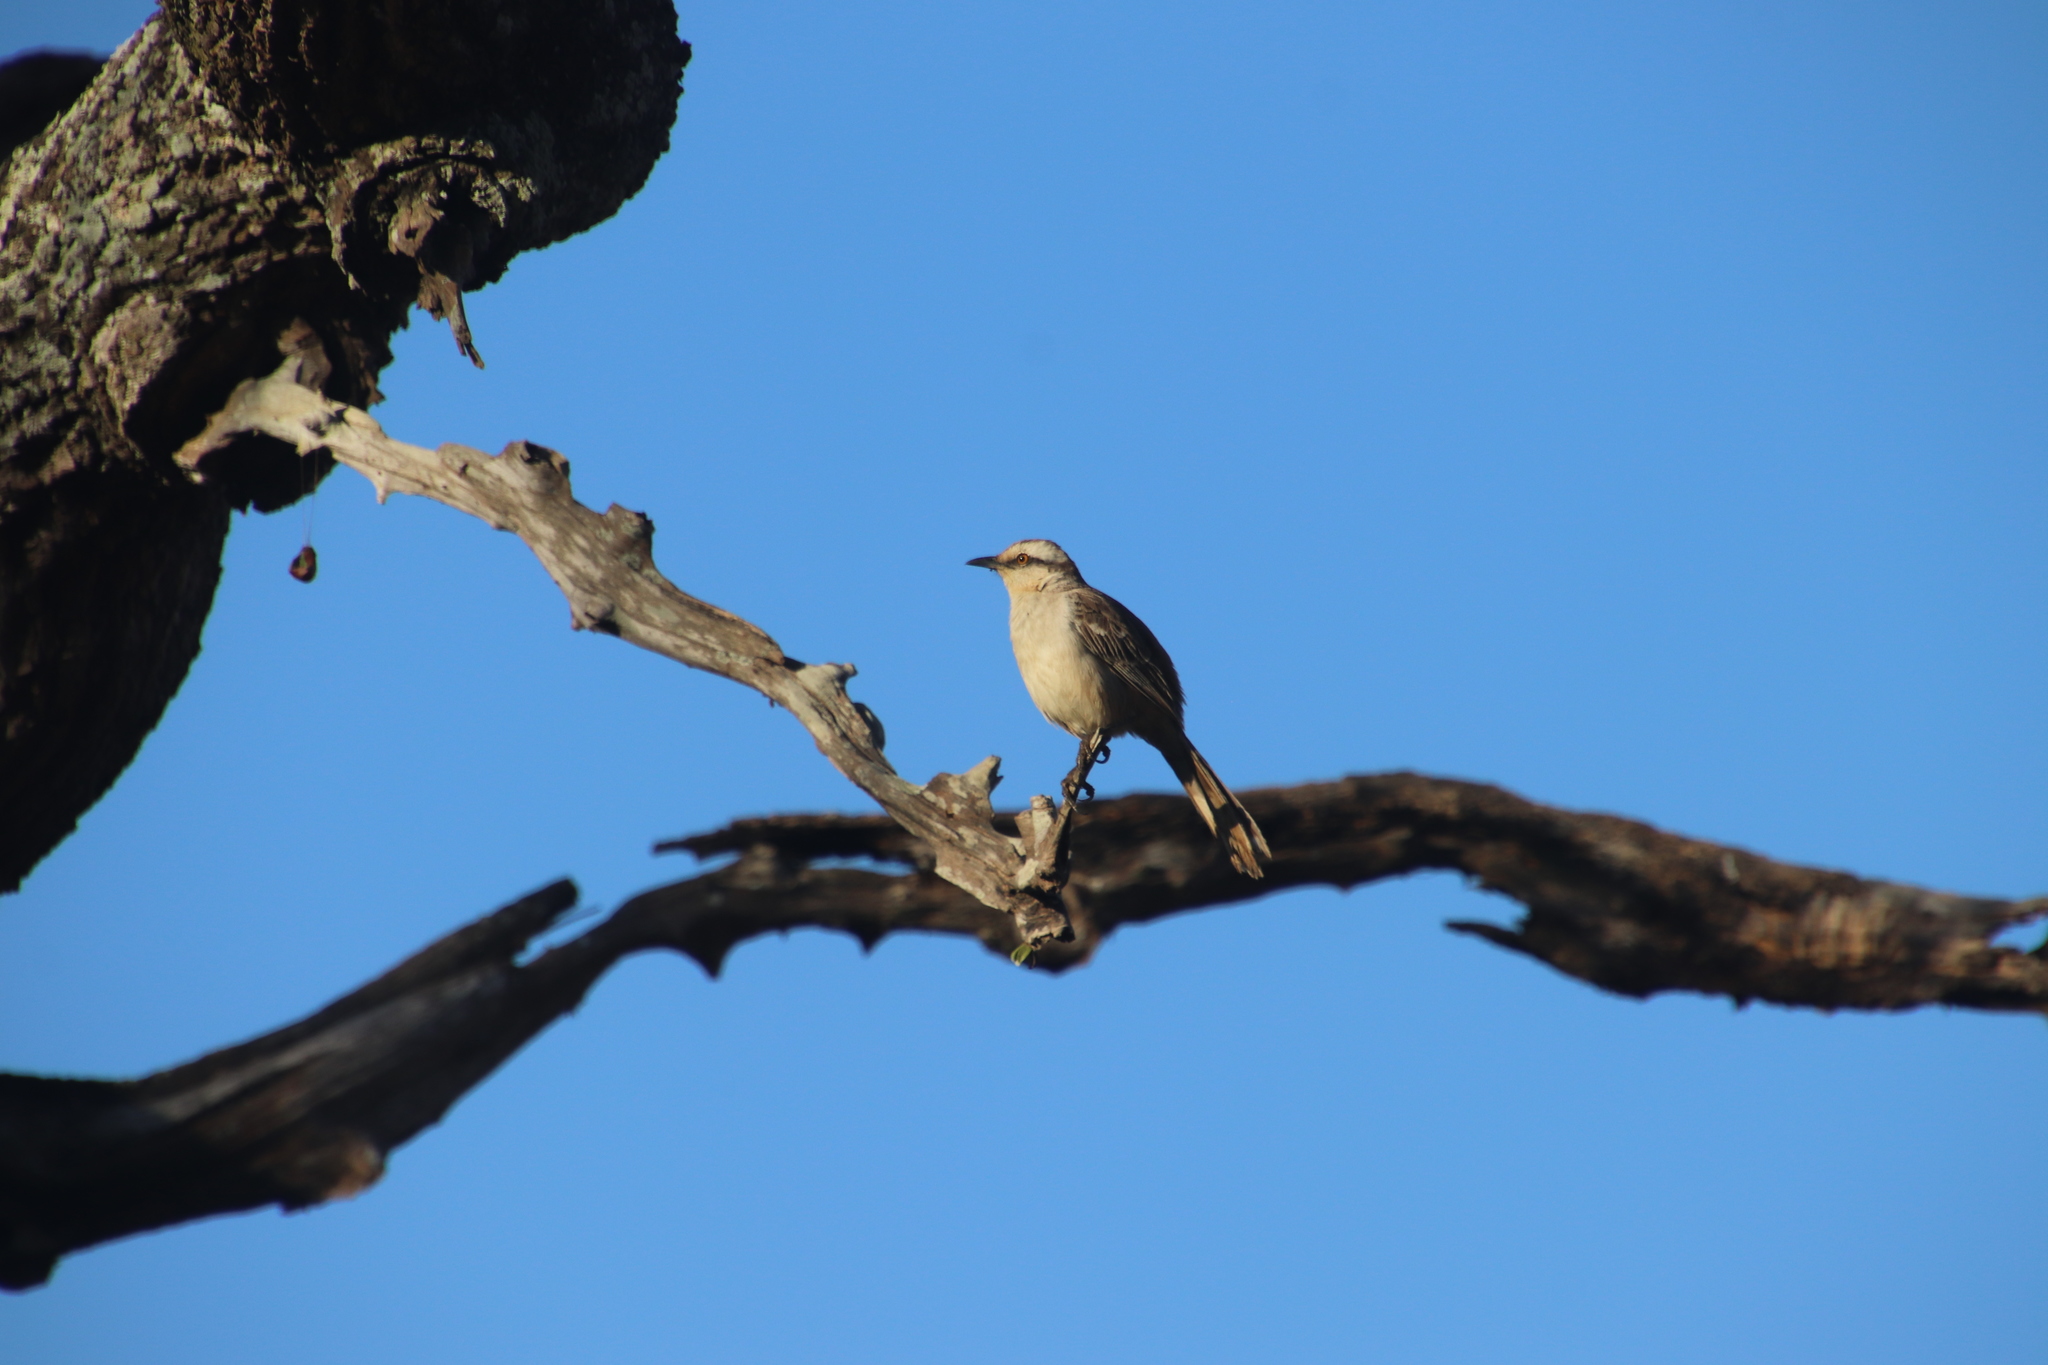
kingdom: Animalia
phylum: Chordata
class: Aves
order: Passeriformes
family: Mimidae
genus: Mimus
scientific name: Mimus saturninus
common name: Chalk-browed mockingbird
